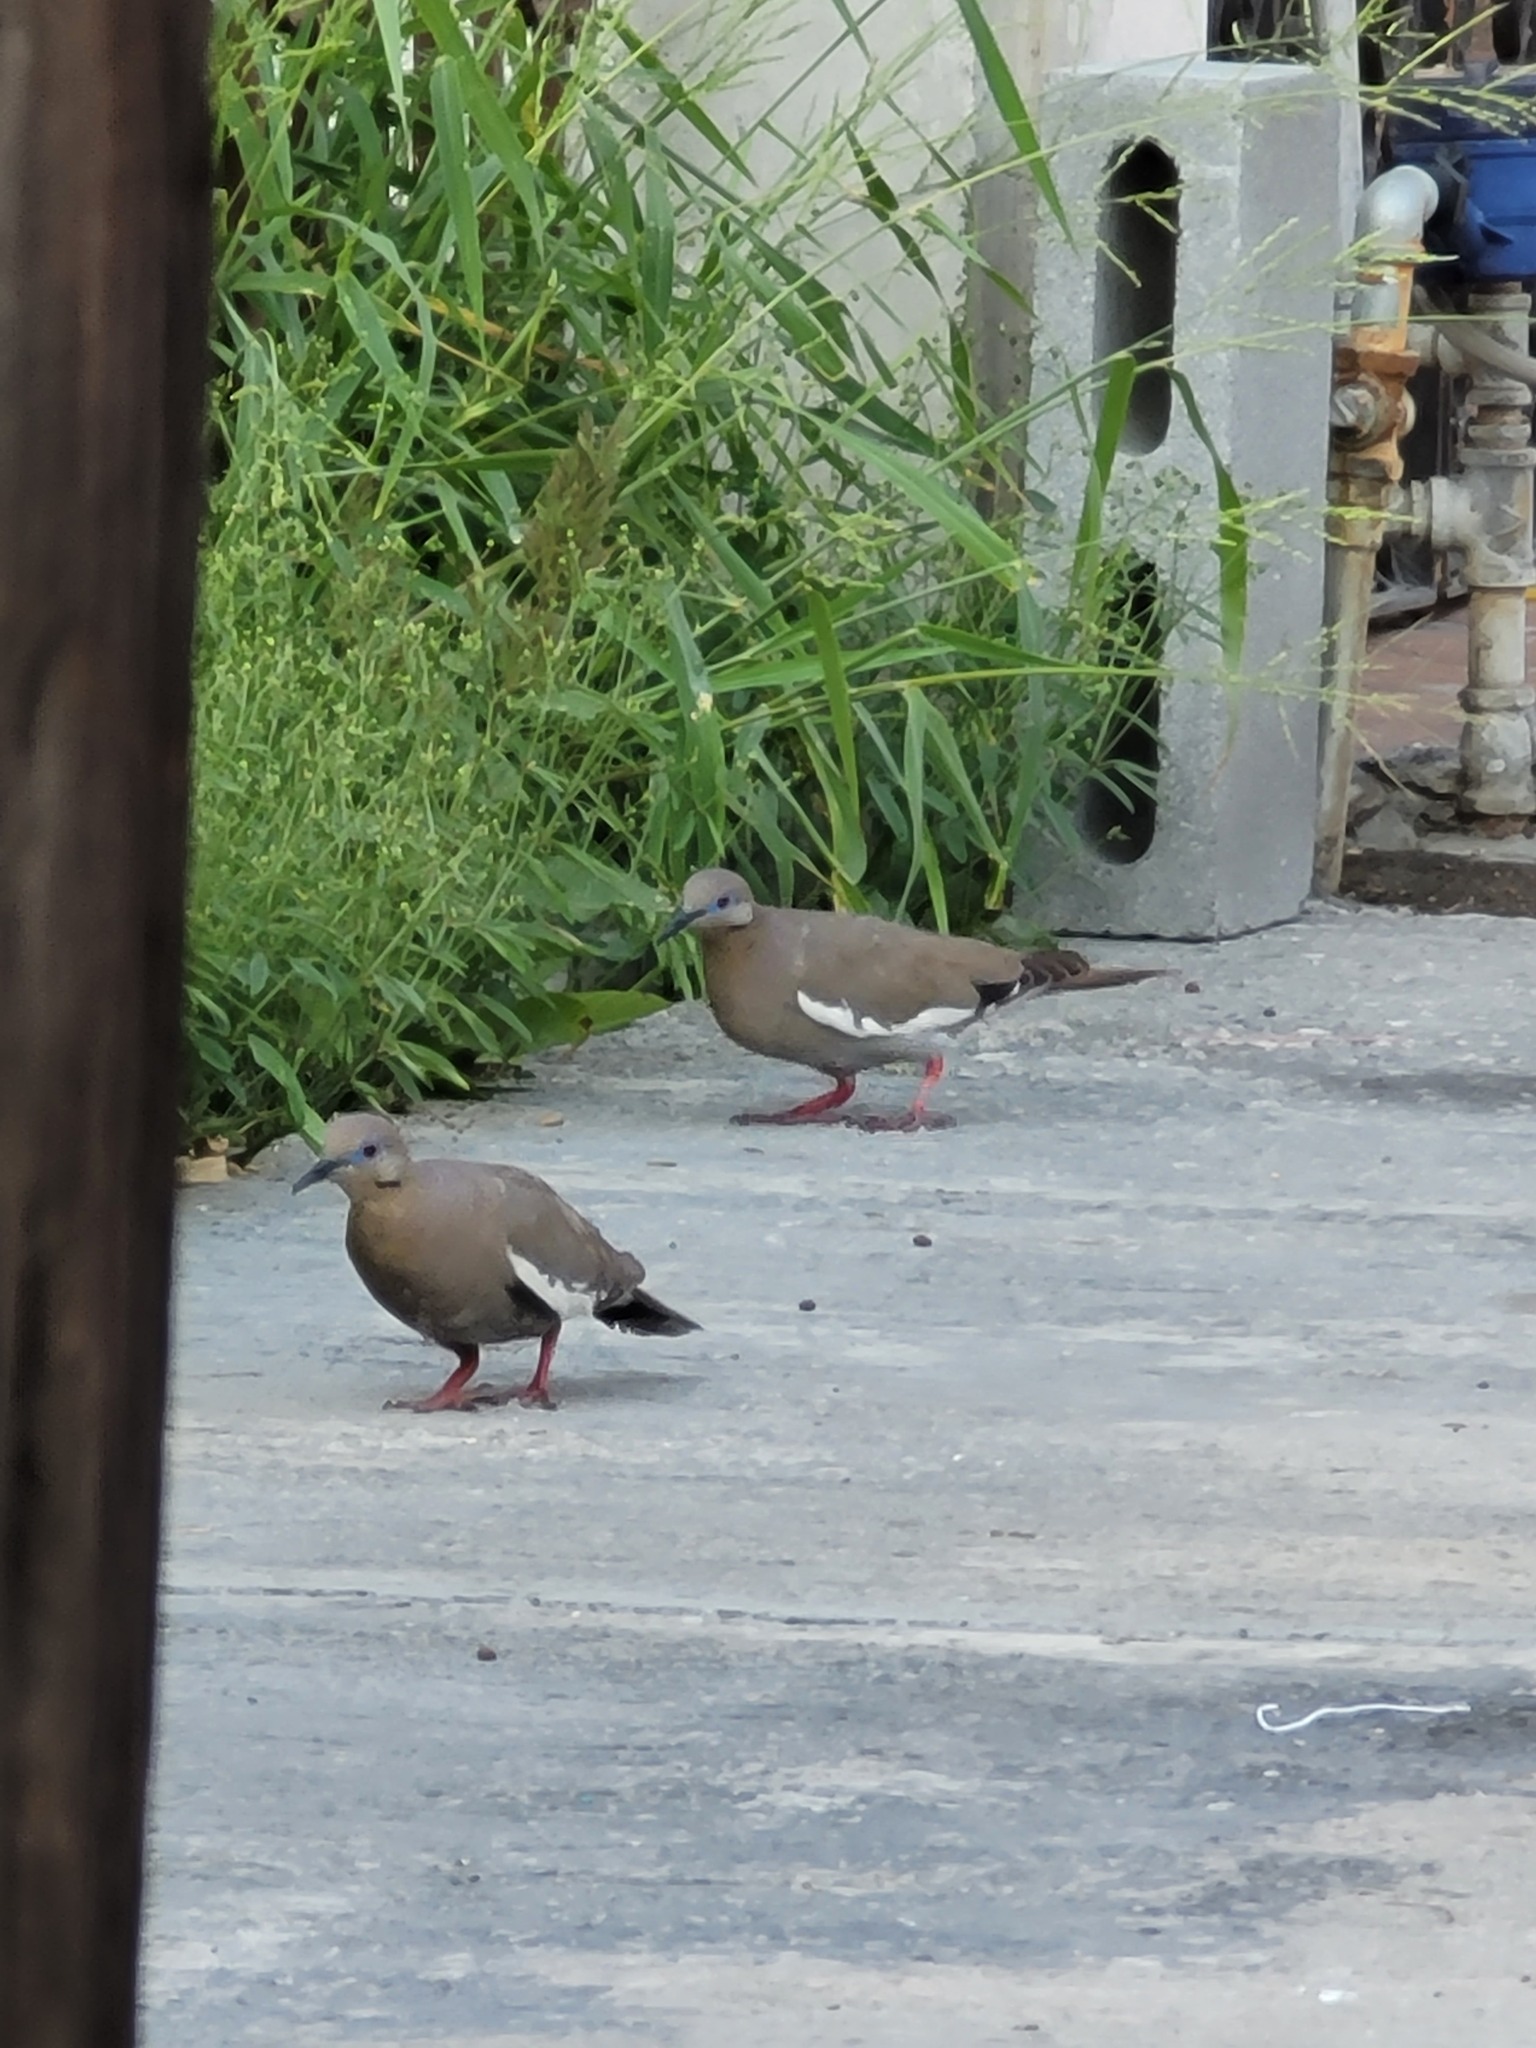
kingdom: Animalia
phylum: Chordata
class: Aves
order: Columbiformes
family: Columbidae
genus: Zenaida
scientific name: Zenaida asiatica
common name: White-winged dove
